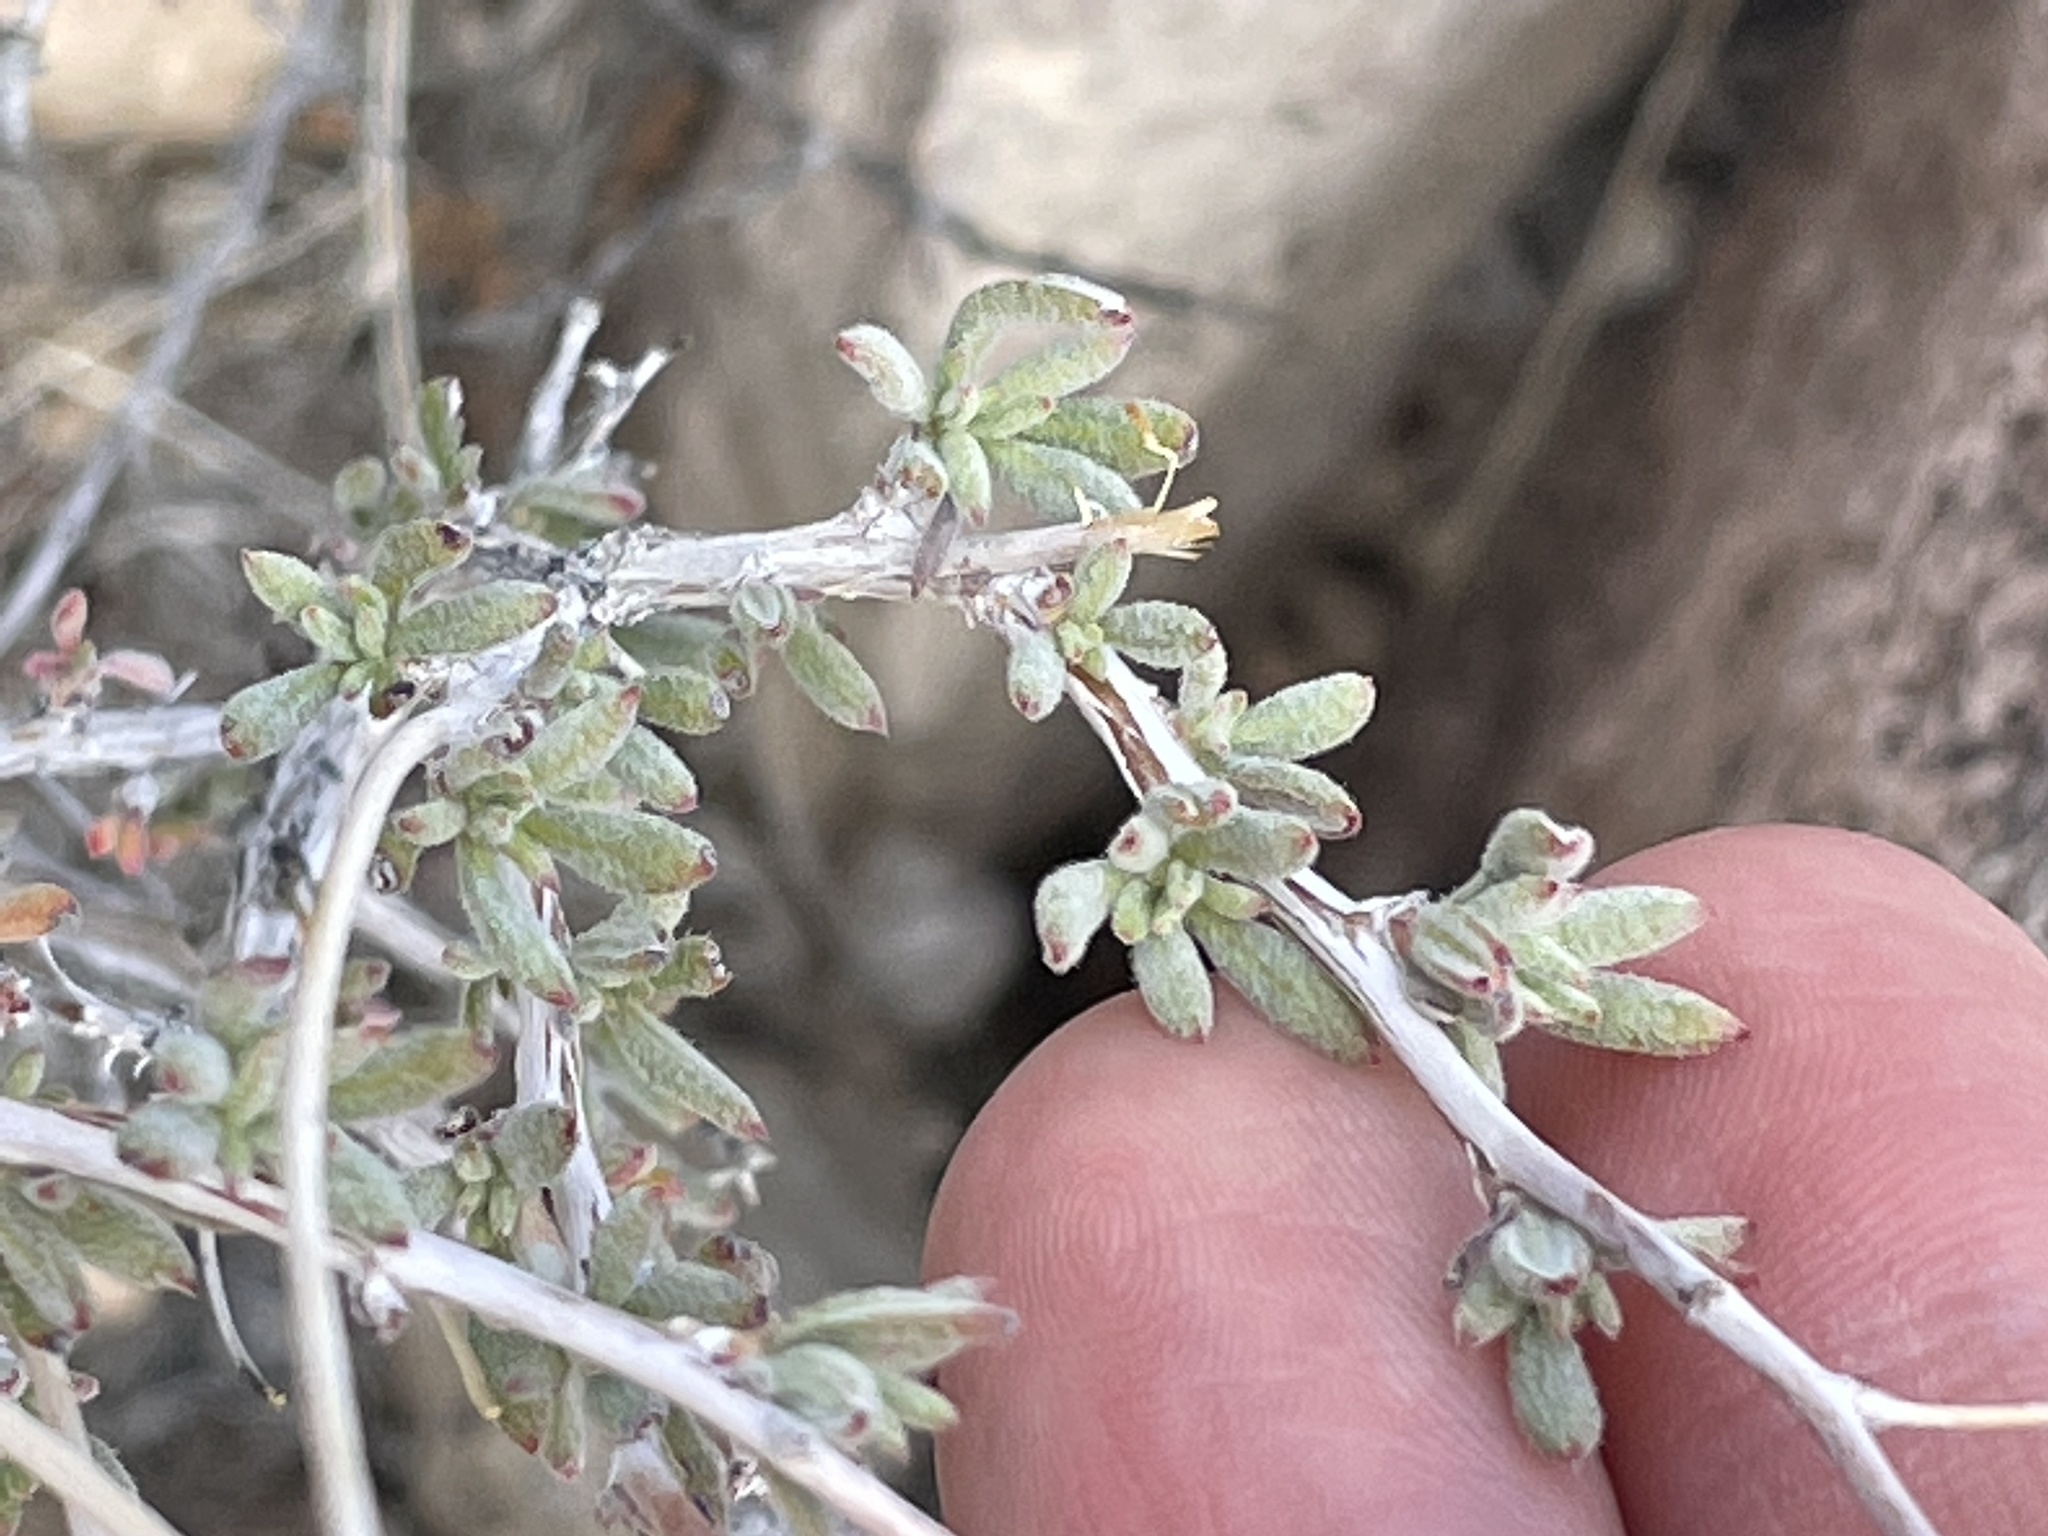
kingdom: Plantae
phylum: Tracheophyta
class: Magnoliopsida
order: Caryophyllales
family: Polygonaceae
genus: Eriogonum
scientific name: Eriogonum fasciculatum
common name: California wild buckwheat
